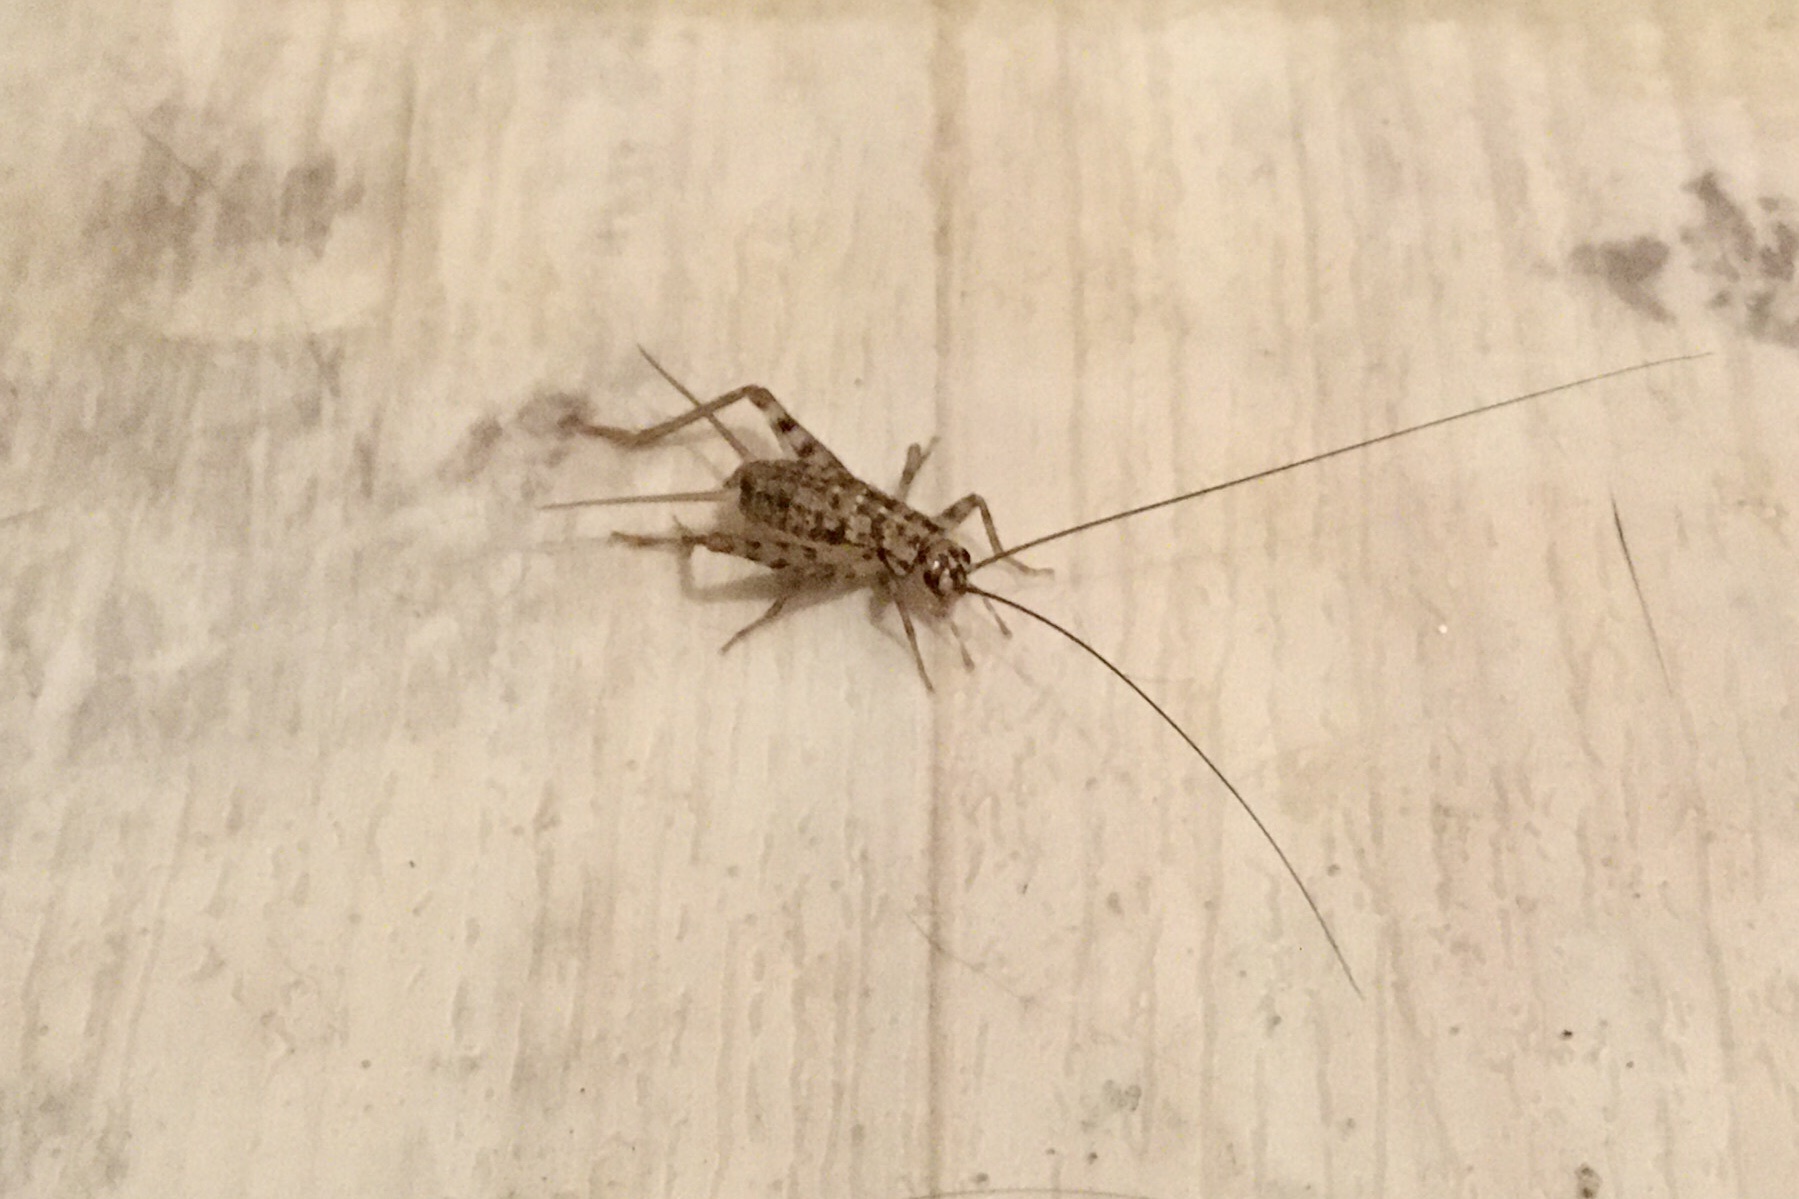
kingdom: Animalia
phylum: Arthropoda
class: Insecta
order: Orthoptera
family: Gryllidae
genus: Gryllomorpha
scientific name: Gryllomorpha dalmatina
